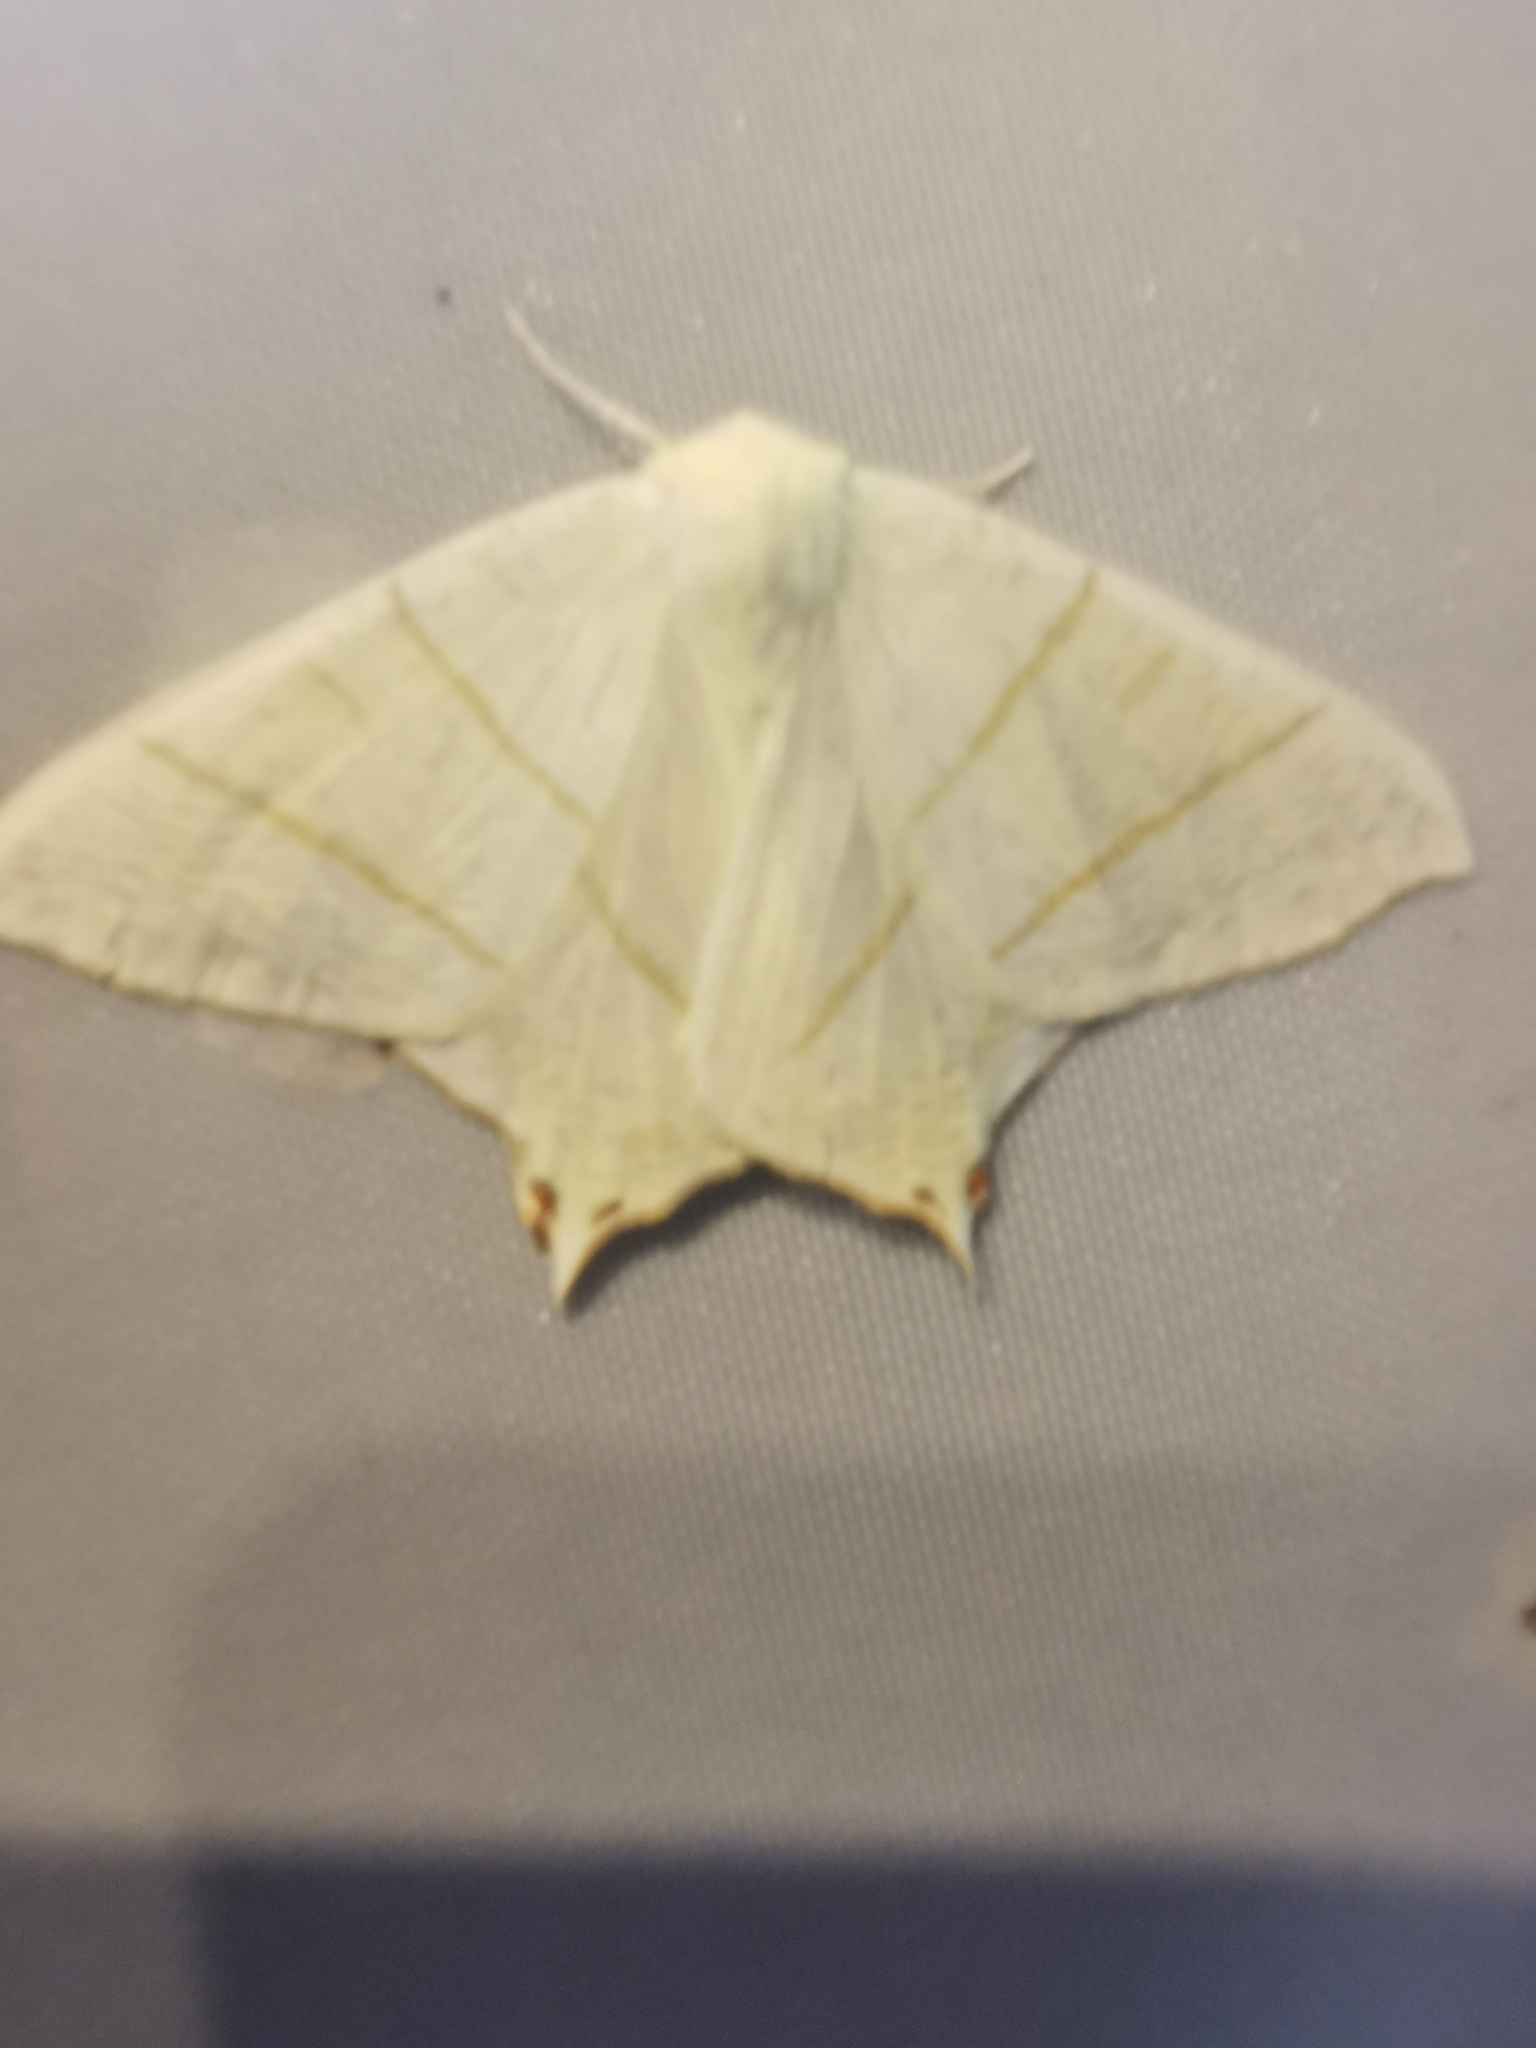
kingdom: Animalia
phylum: Arthropoda
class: Insecta
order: Lepidoptera
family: Geometridae
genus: Ourapteryx
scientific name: Ourapteryx sambucaria
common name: Swallow-tailed moth
